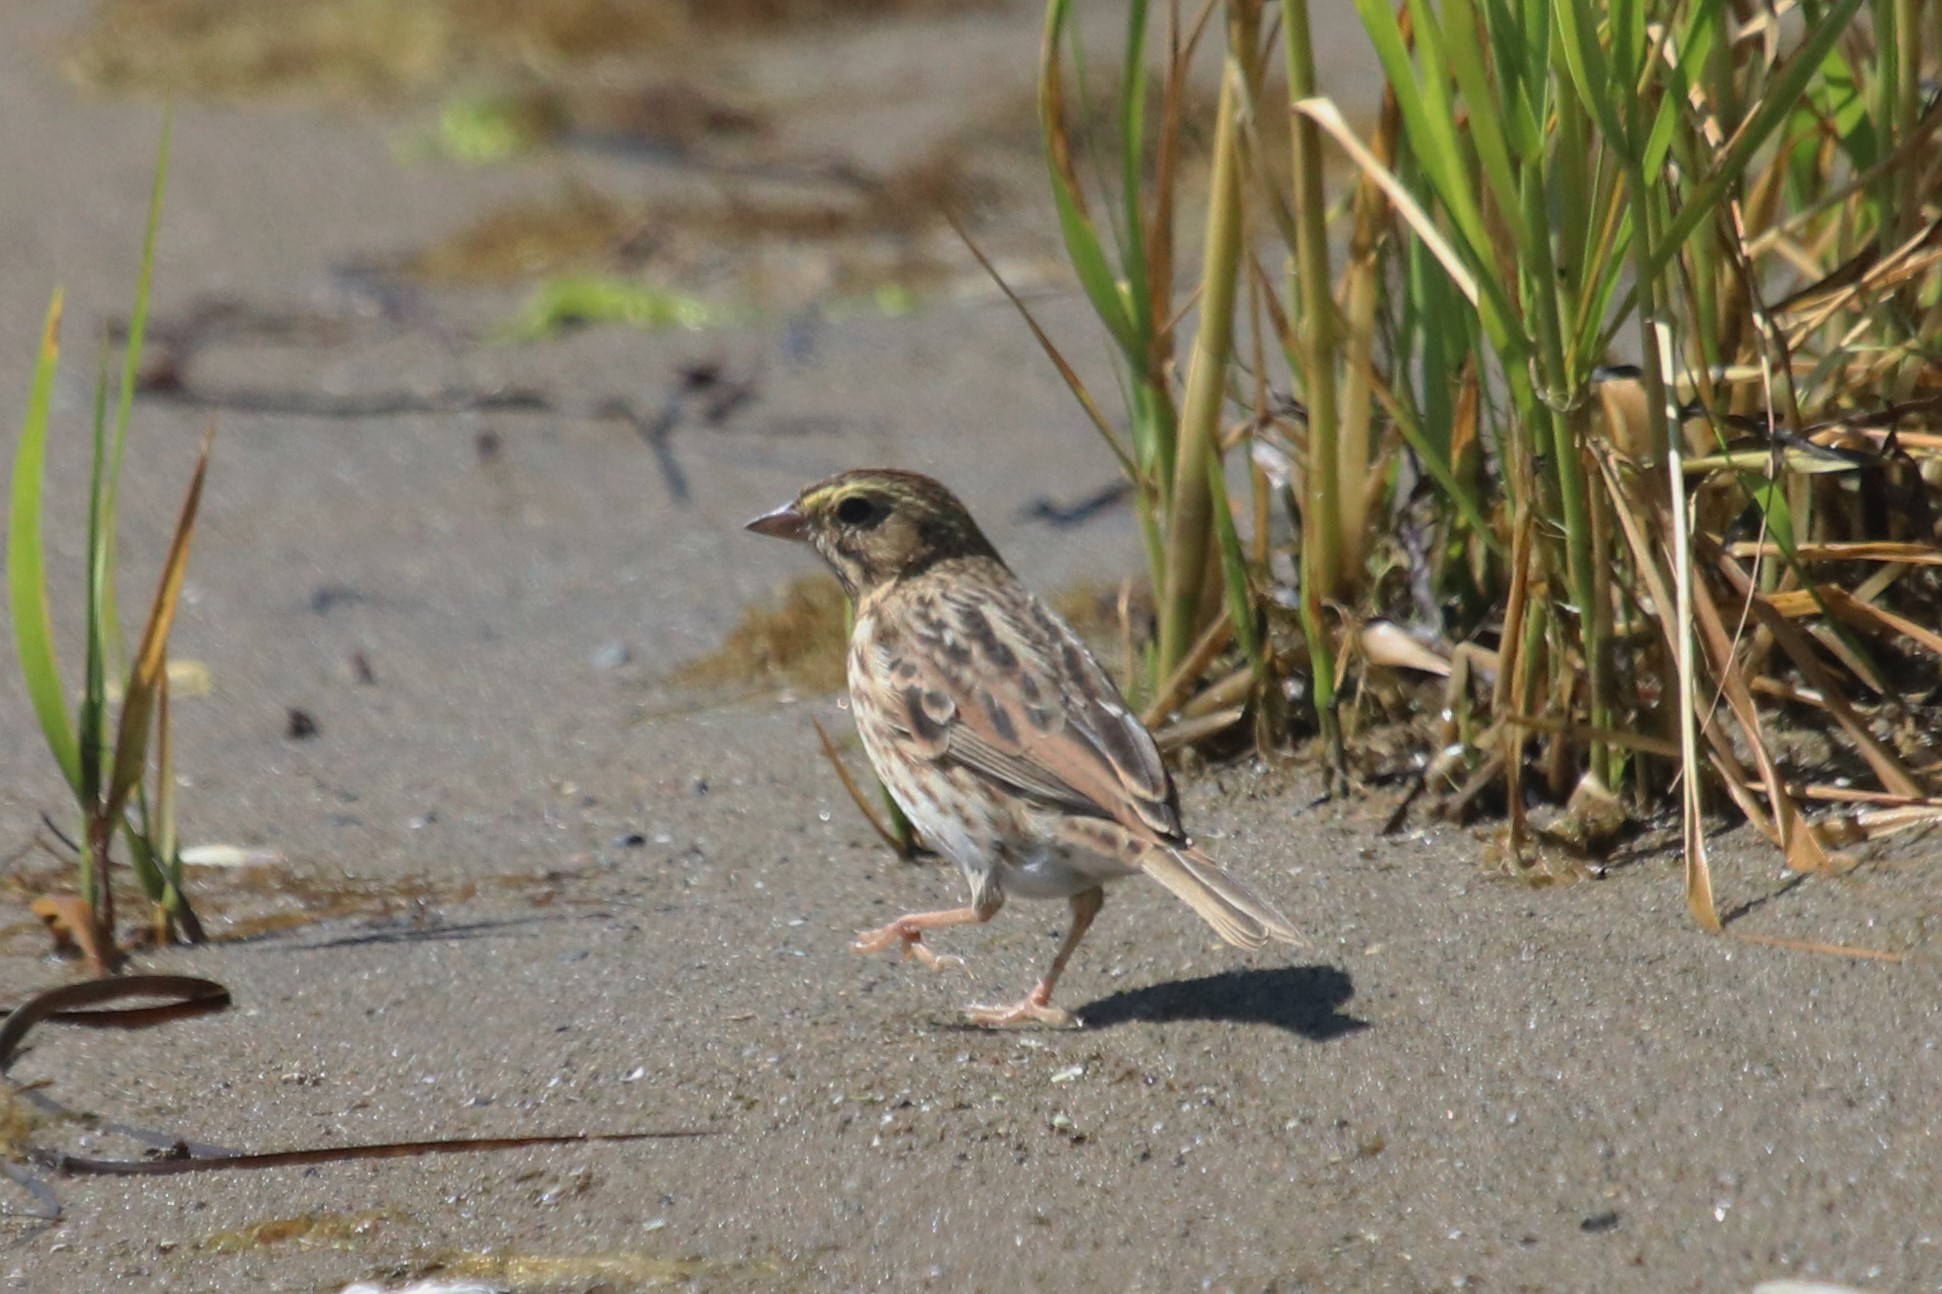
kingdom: Animalia
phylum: Chordata
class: Aves
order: Passeriformes
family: Passerellidae
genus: Passerculus
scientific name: Passerculus sandwichensis
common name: Savannah sparrow
